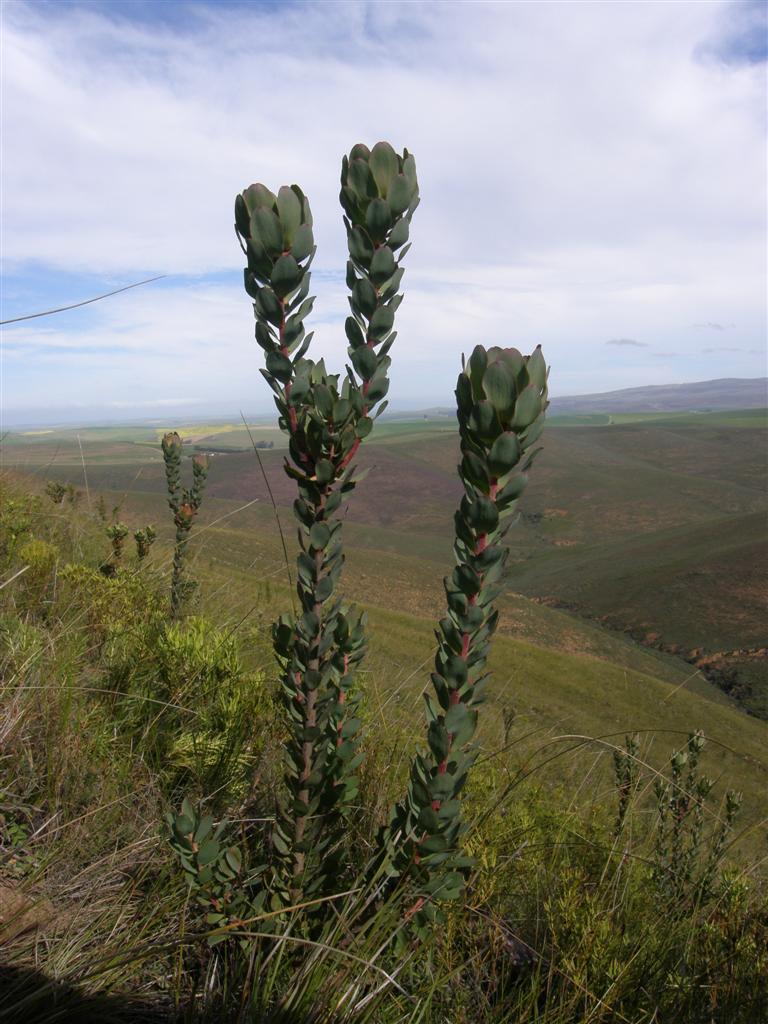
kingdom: Plantae
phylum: Tracheophyta
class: Magnoliopsida
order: Proteales
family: Proteaceae
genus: Leucadendron
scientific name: Leucadendron elimense
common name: Elim conebush
